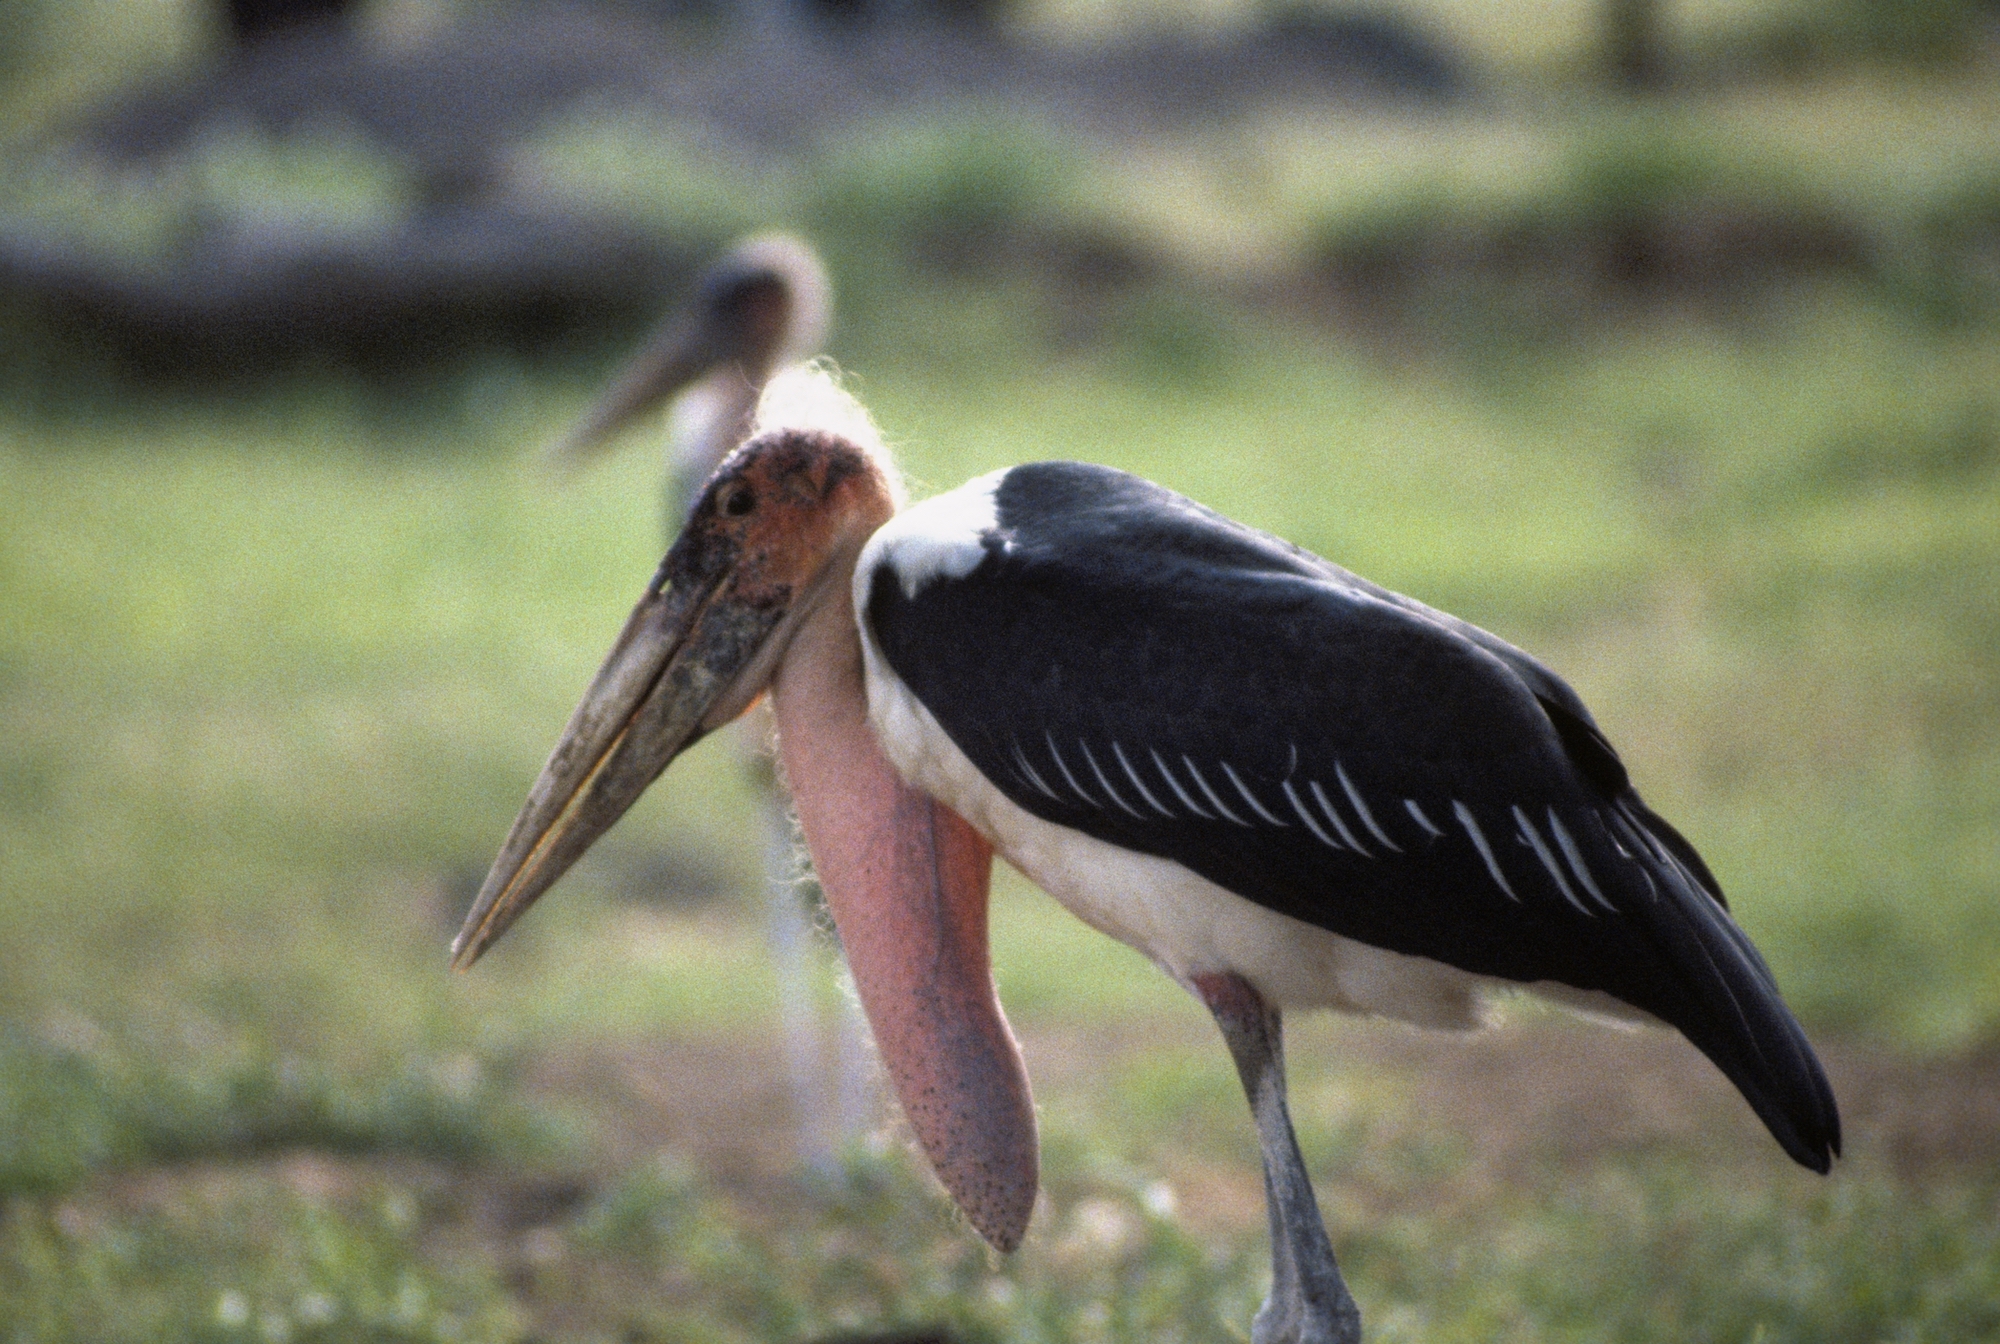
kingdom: Animalia
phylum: Chordata
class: Aves
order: Ciconiiformes
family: Ciconiidae
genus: Leptoptilos
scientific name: Leptoptilos crumenifer
